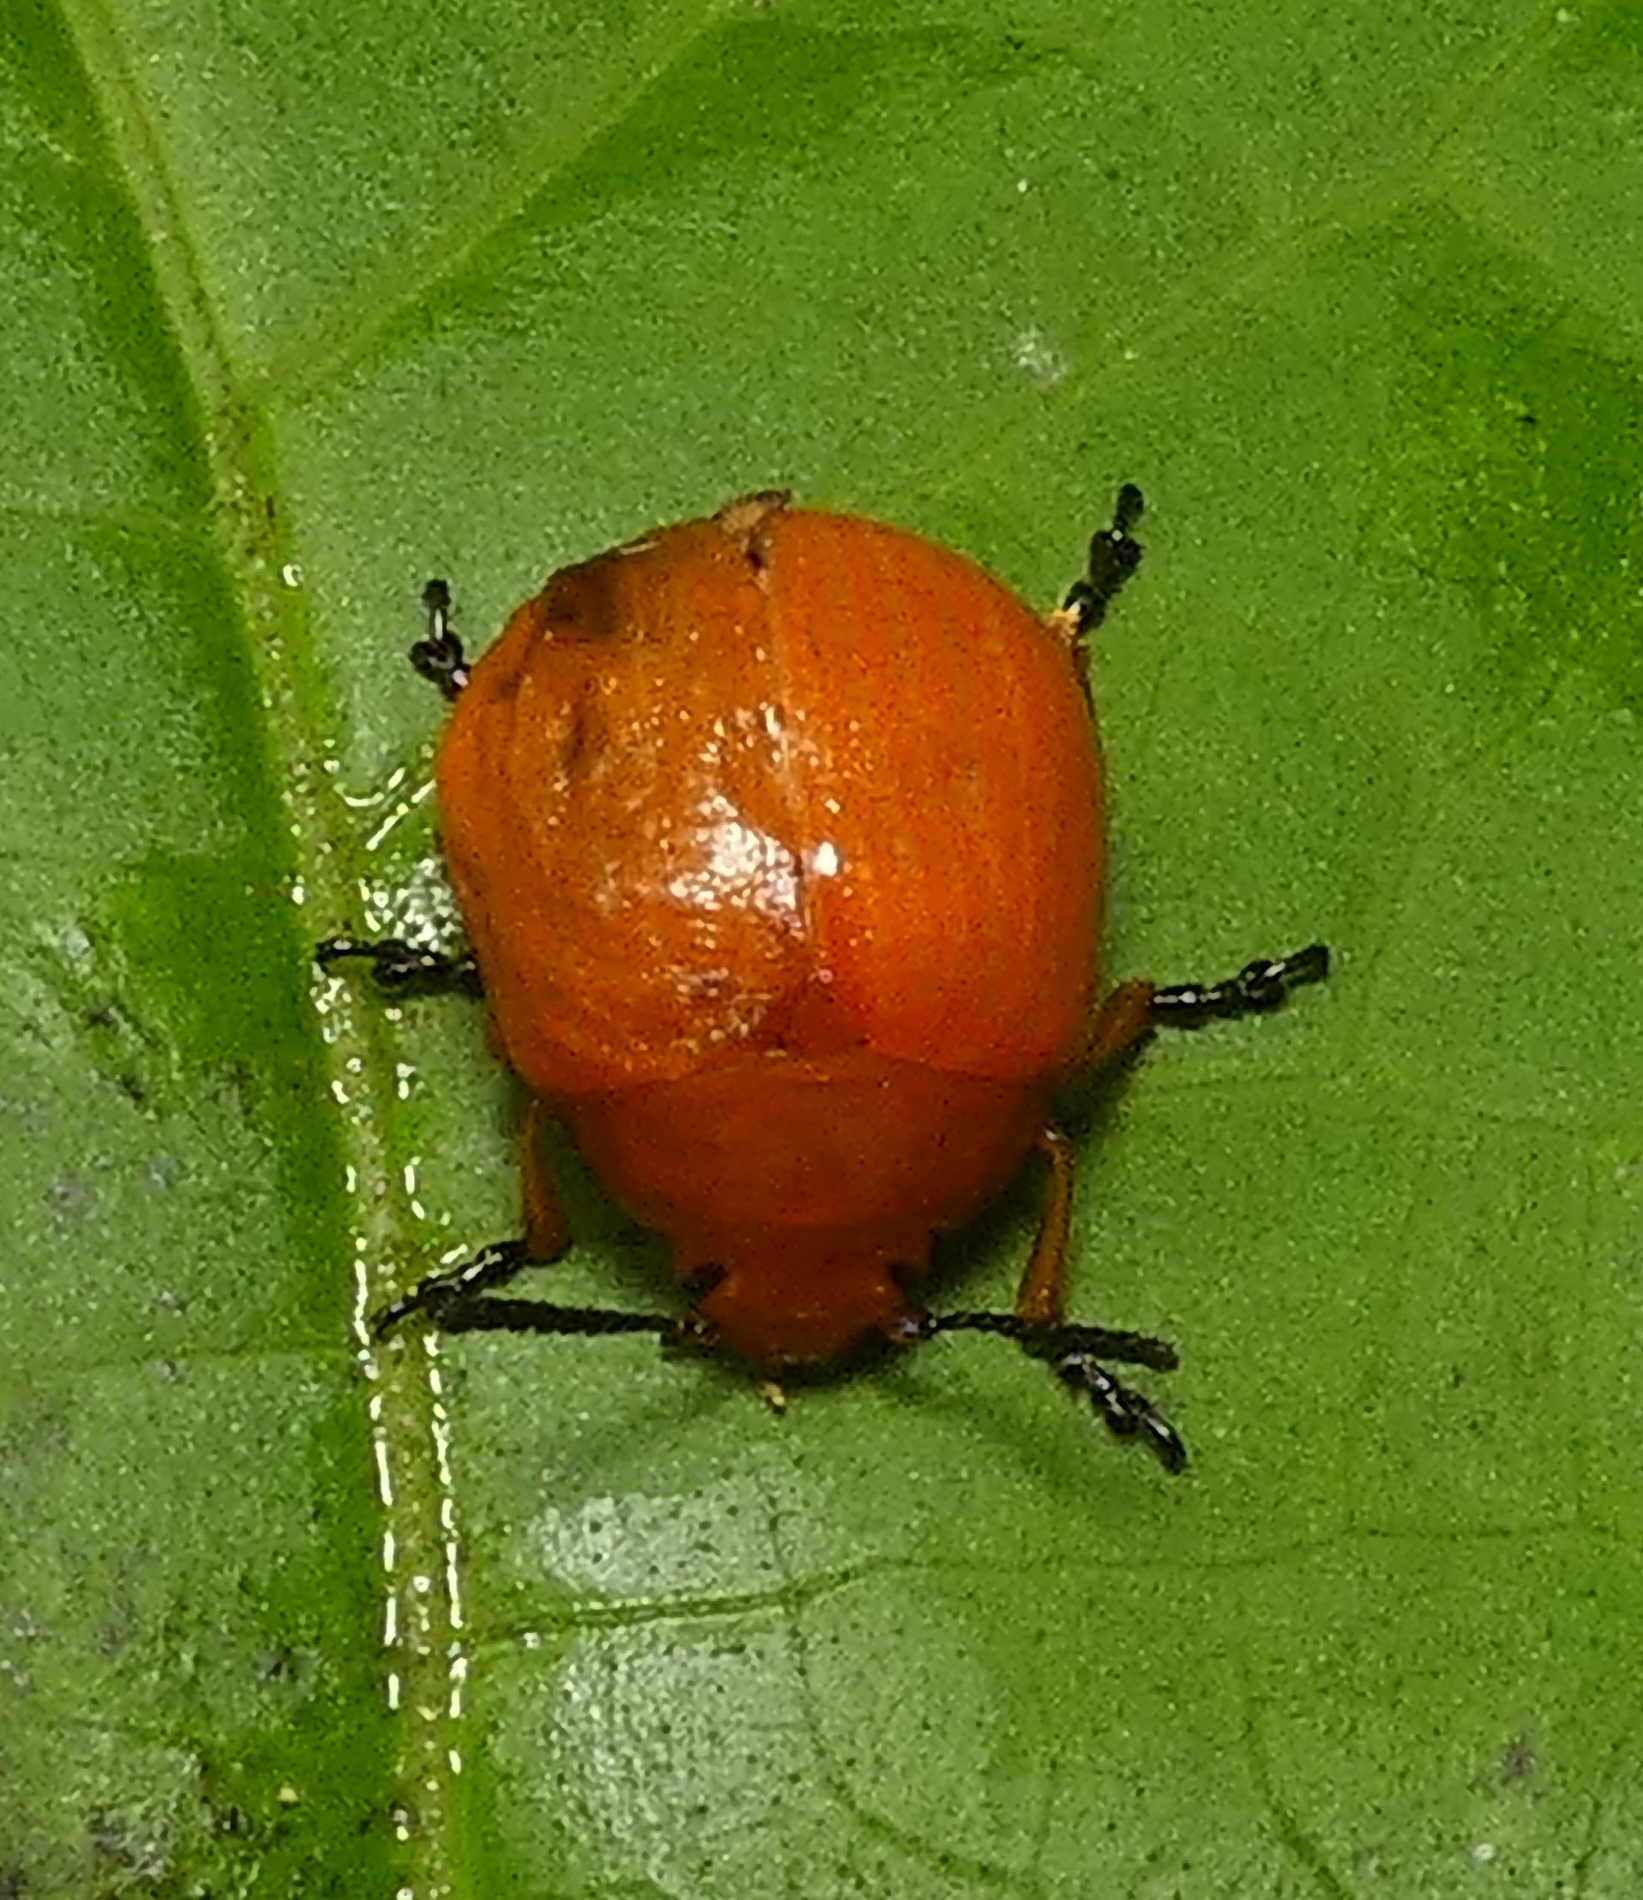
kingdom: Animalia
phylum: Arthropoda
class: Insecta
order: Coleoptera
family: Chrysomelidae
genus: Eugonycha
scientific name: Eugonycha
